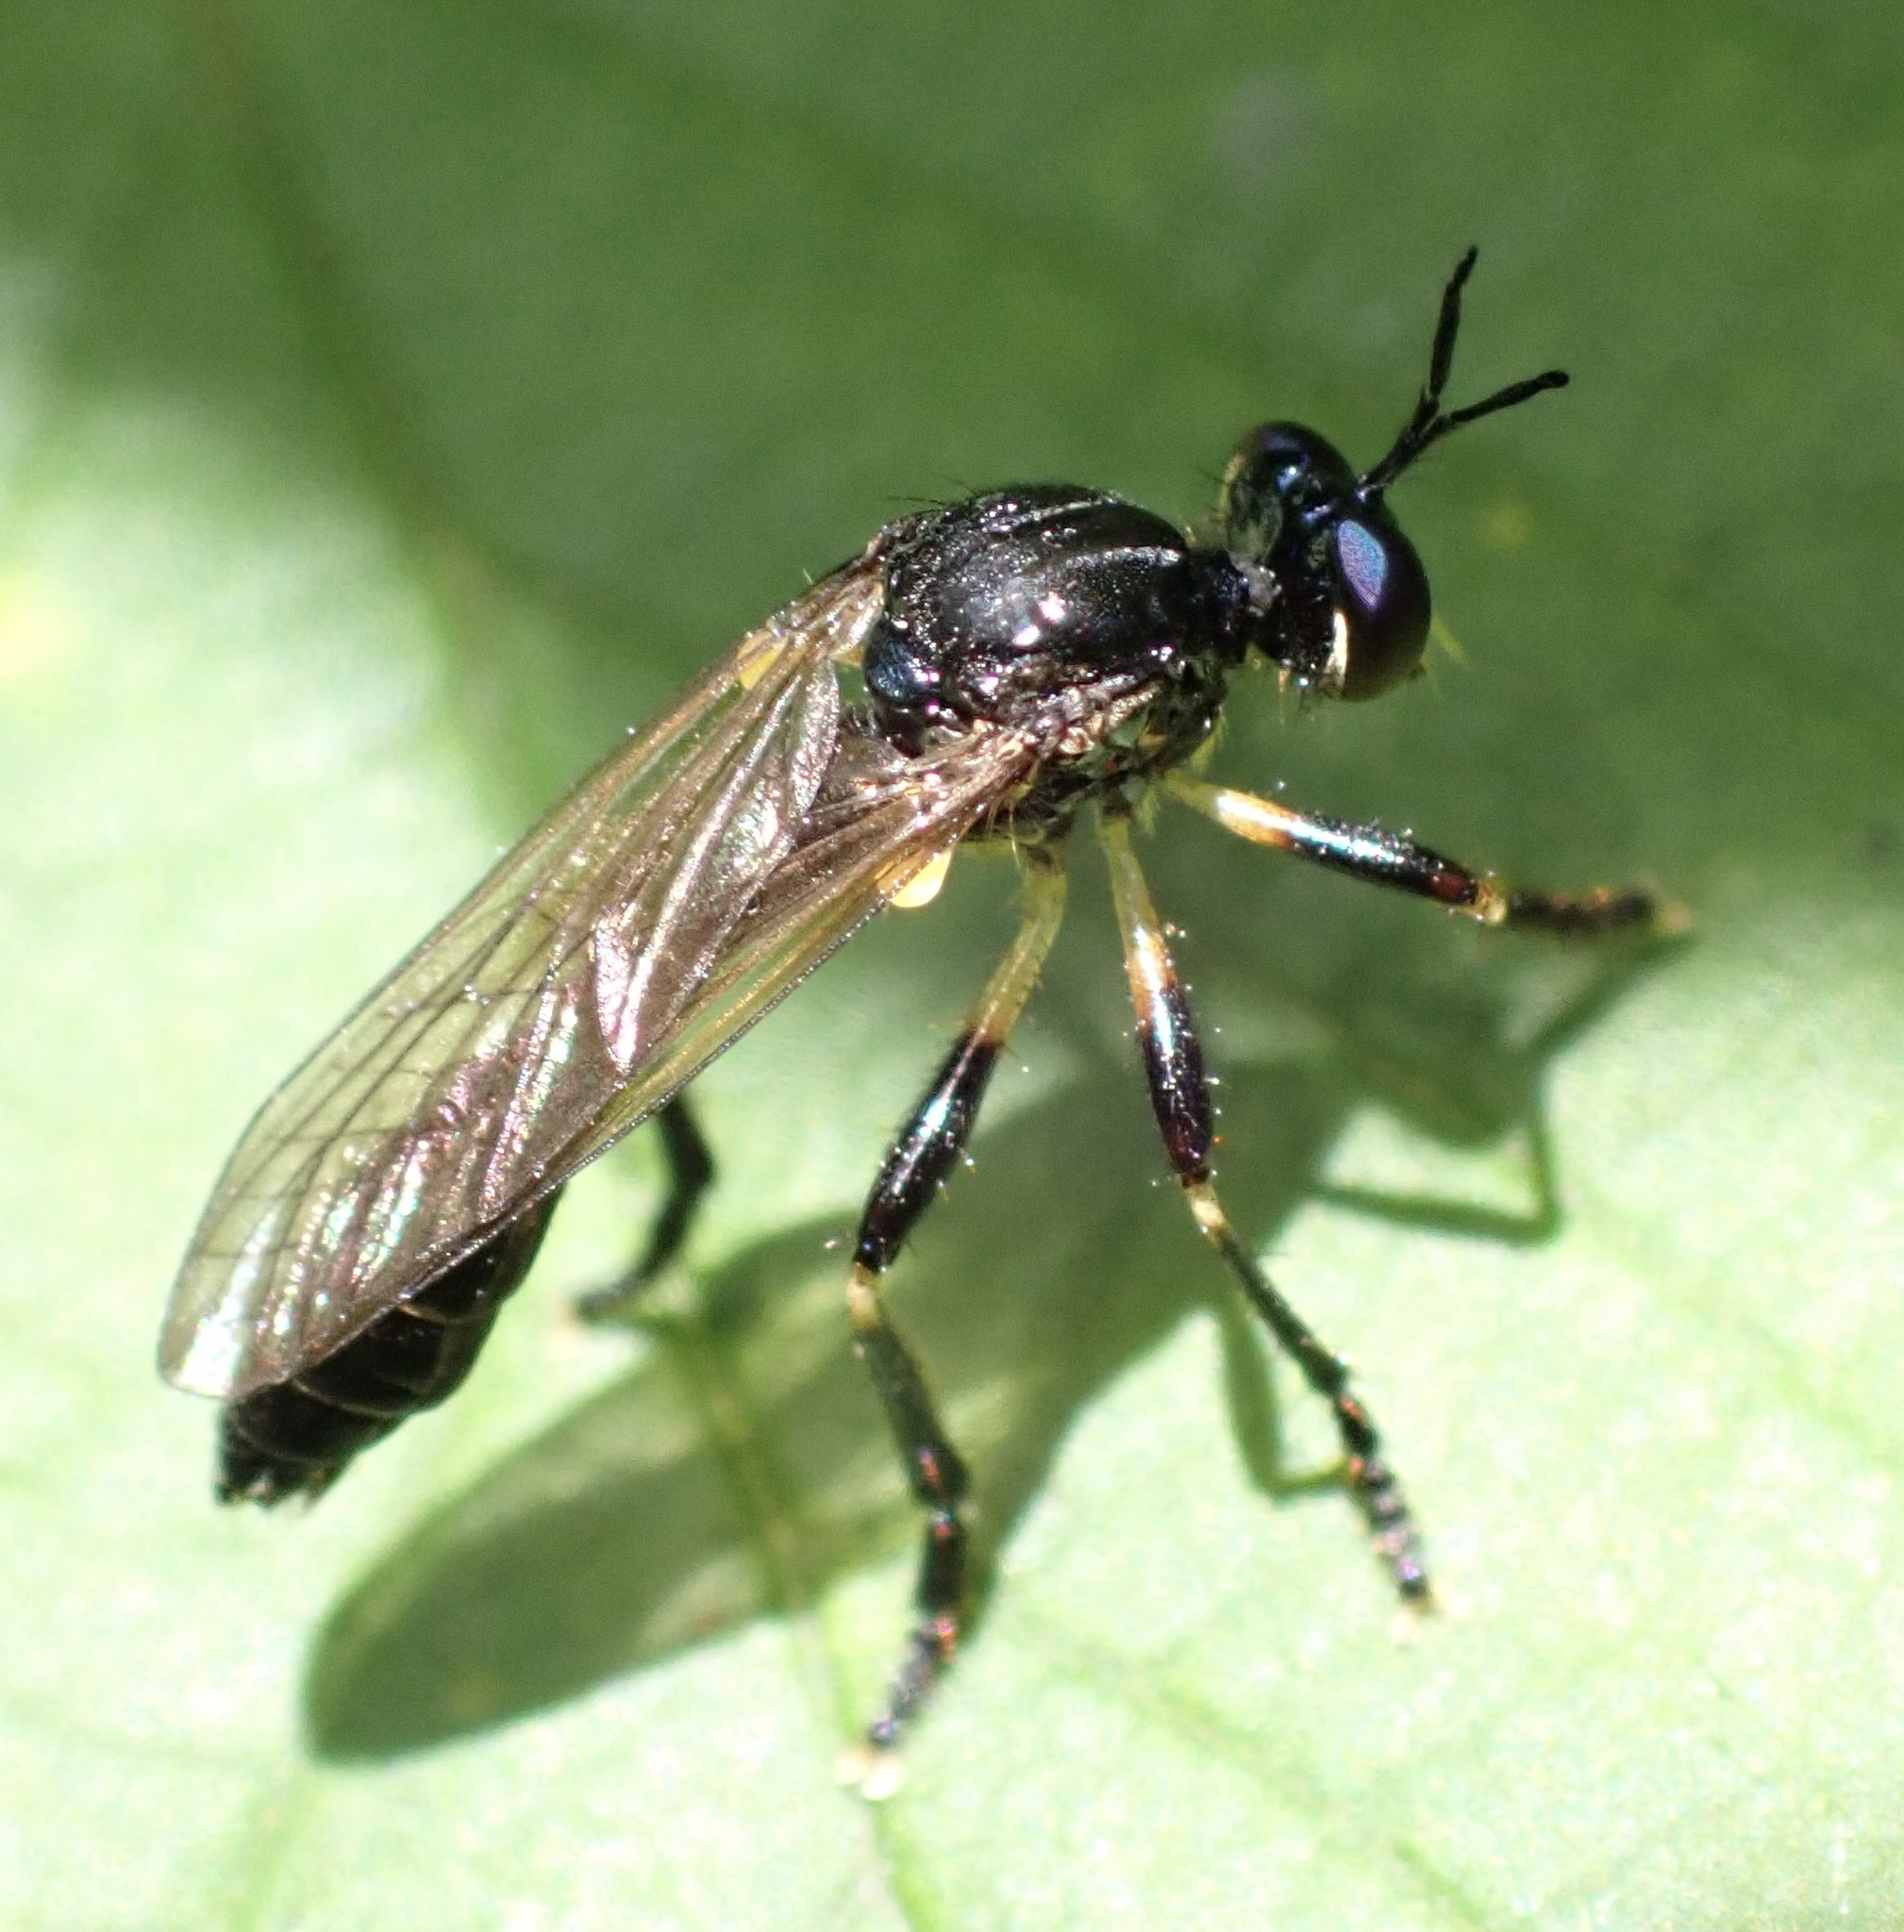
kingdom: Animalia
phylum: Arthropoda
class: Insecta
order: Diptera
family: Asilidae
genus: Dioctria
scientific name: Dioctria cothurnata
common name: Scarce red-legged robberfly
